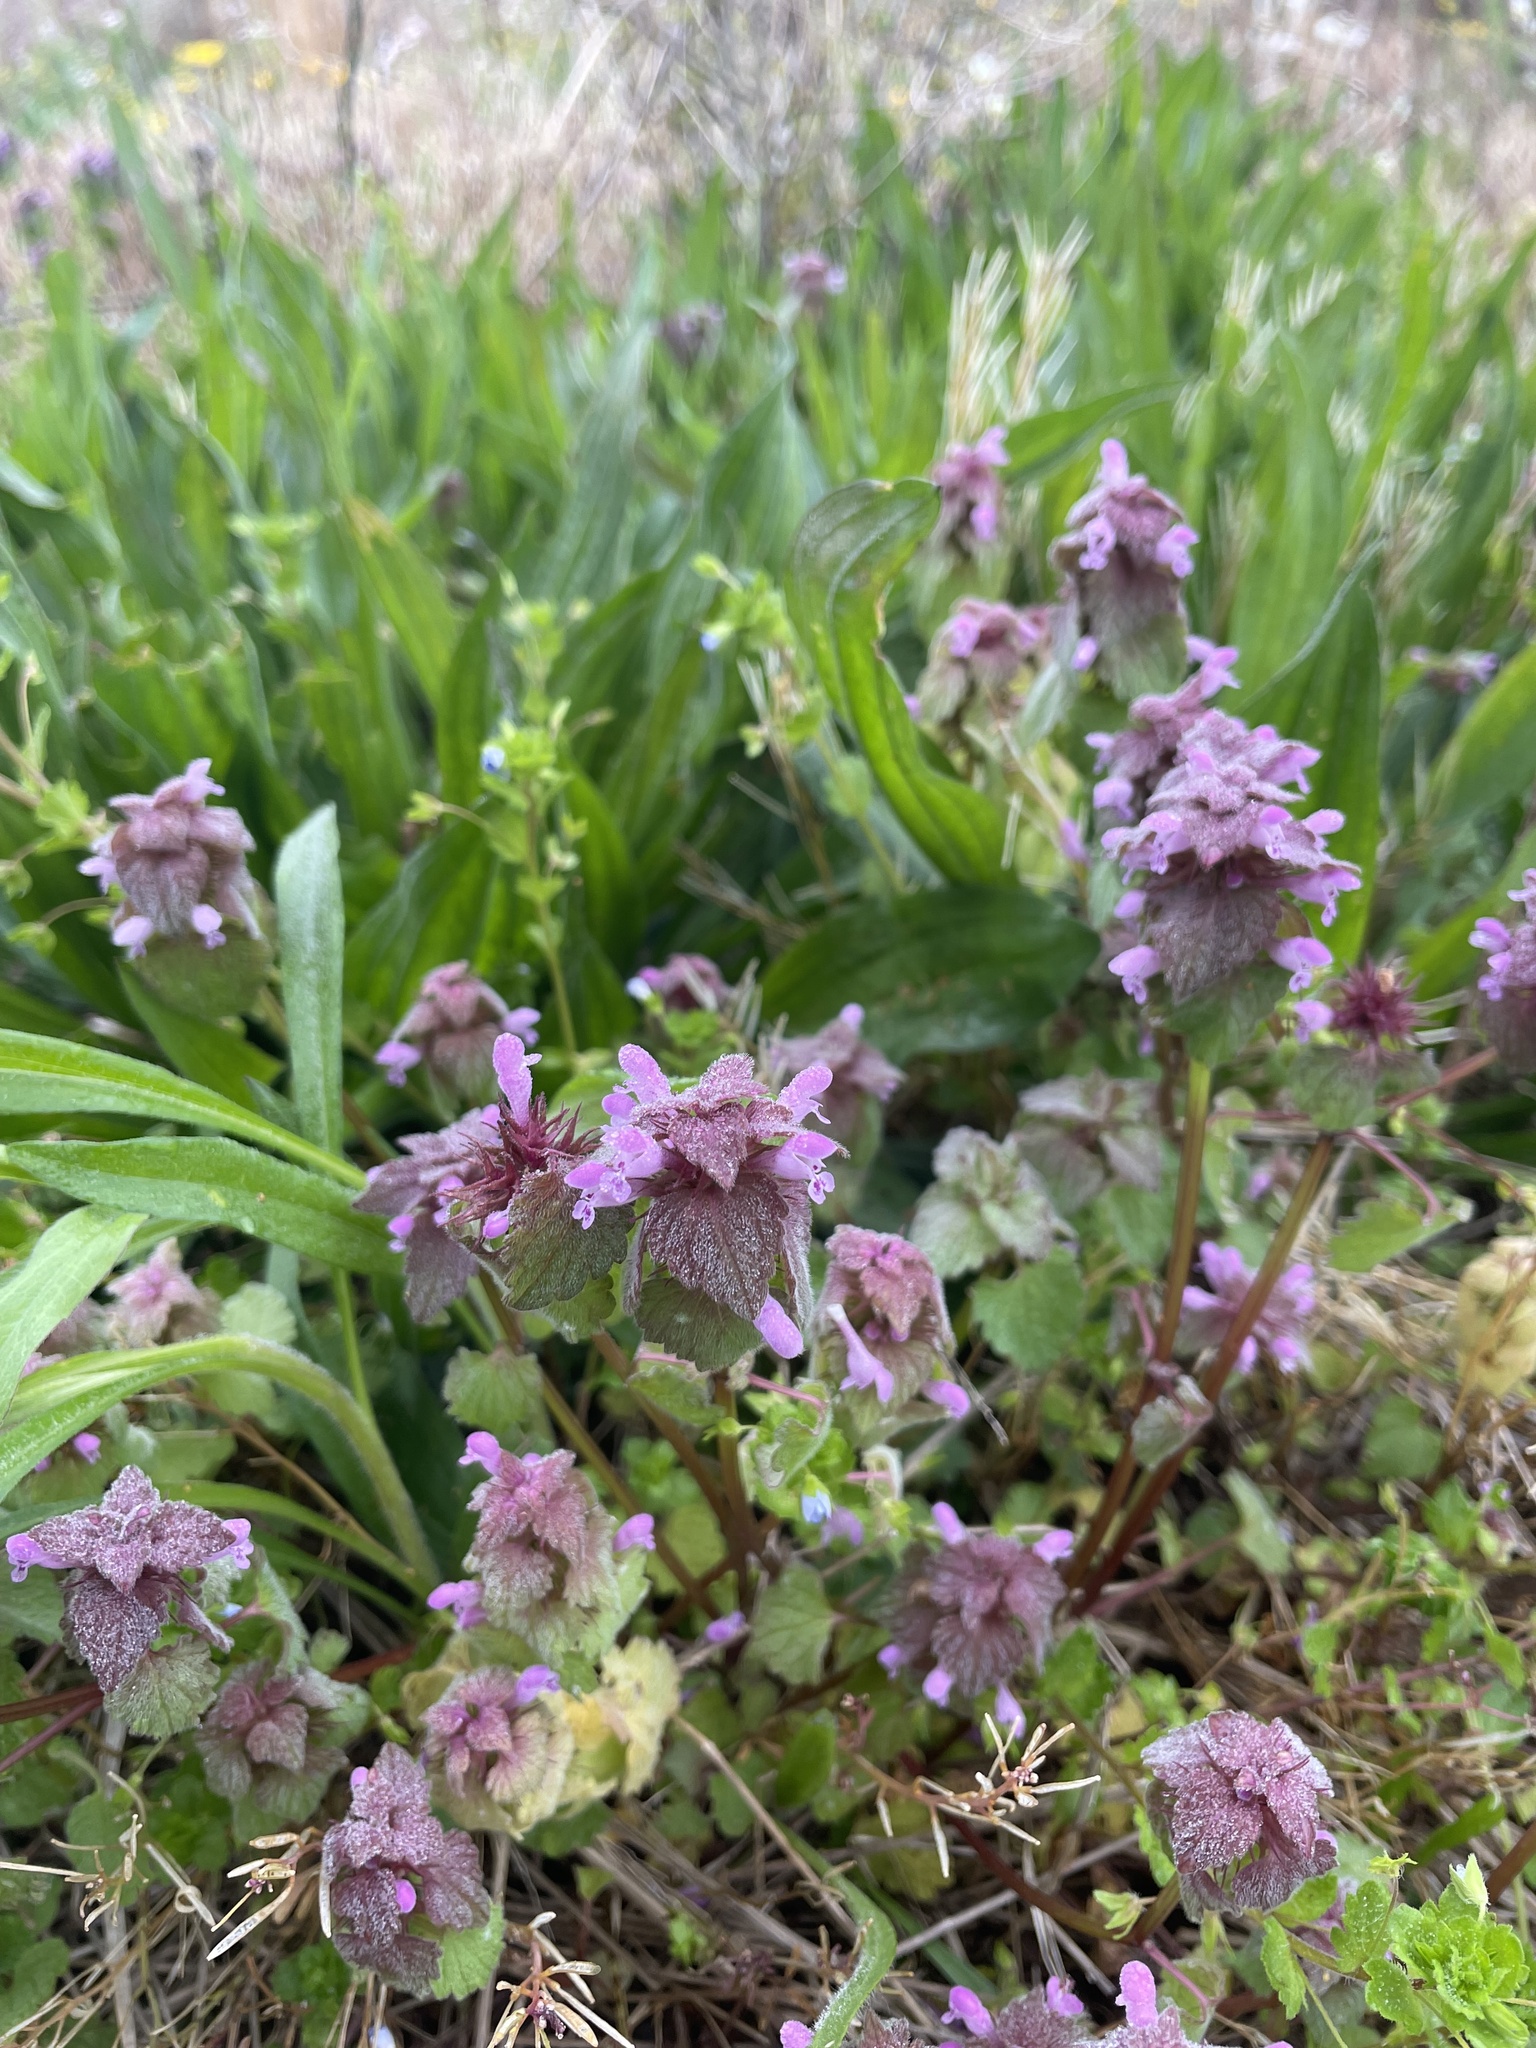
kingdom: Plantae
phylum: Tracheophyta
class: Magnoliopsida
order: Lamiales
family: Lamiaceae
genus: Lamium
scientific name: Lamium purpureum
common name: Red dead-nettle
